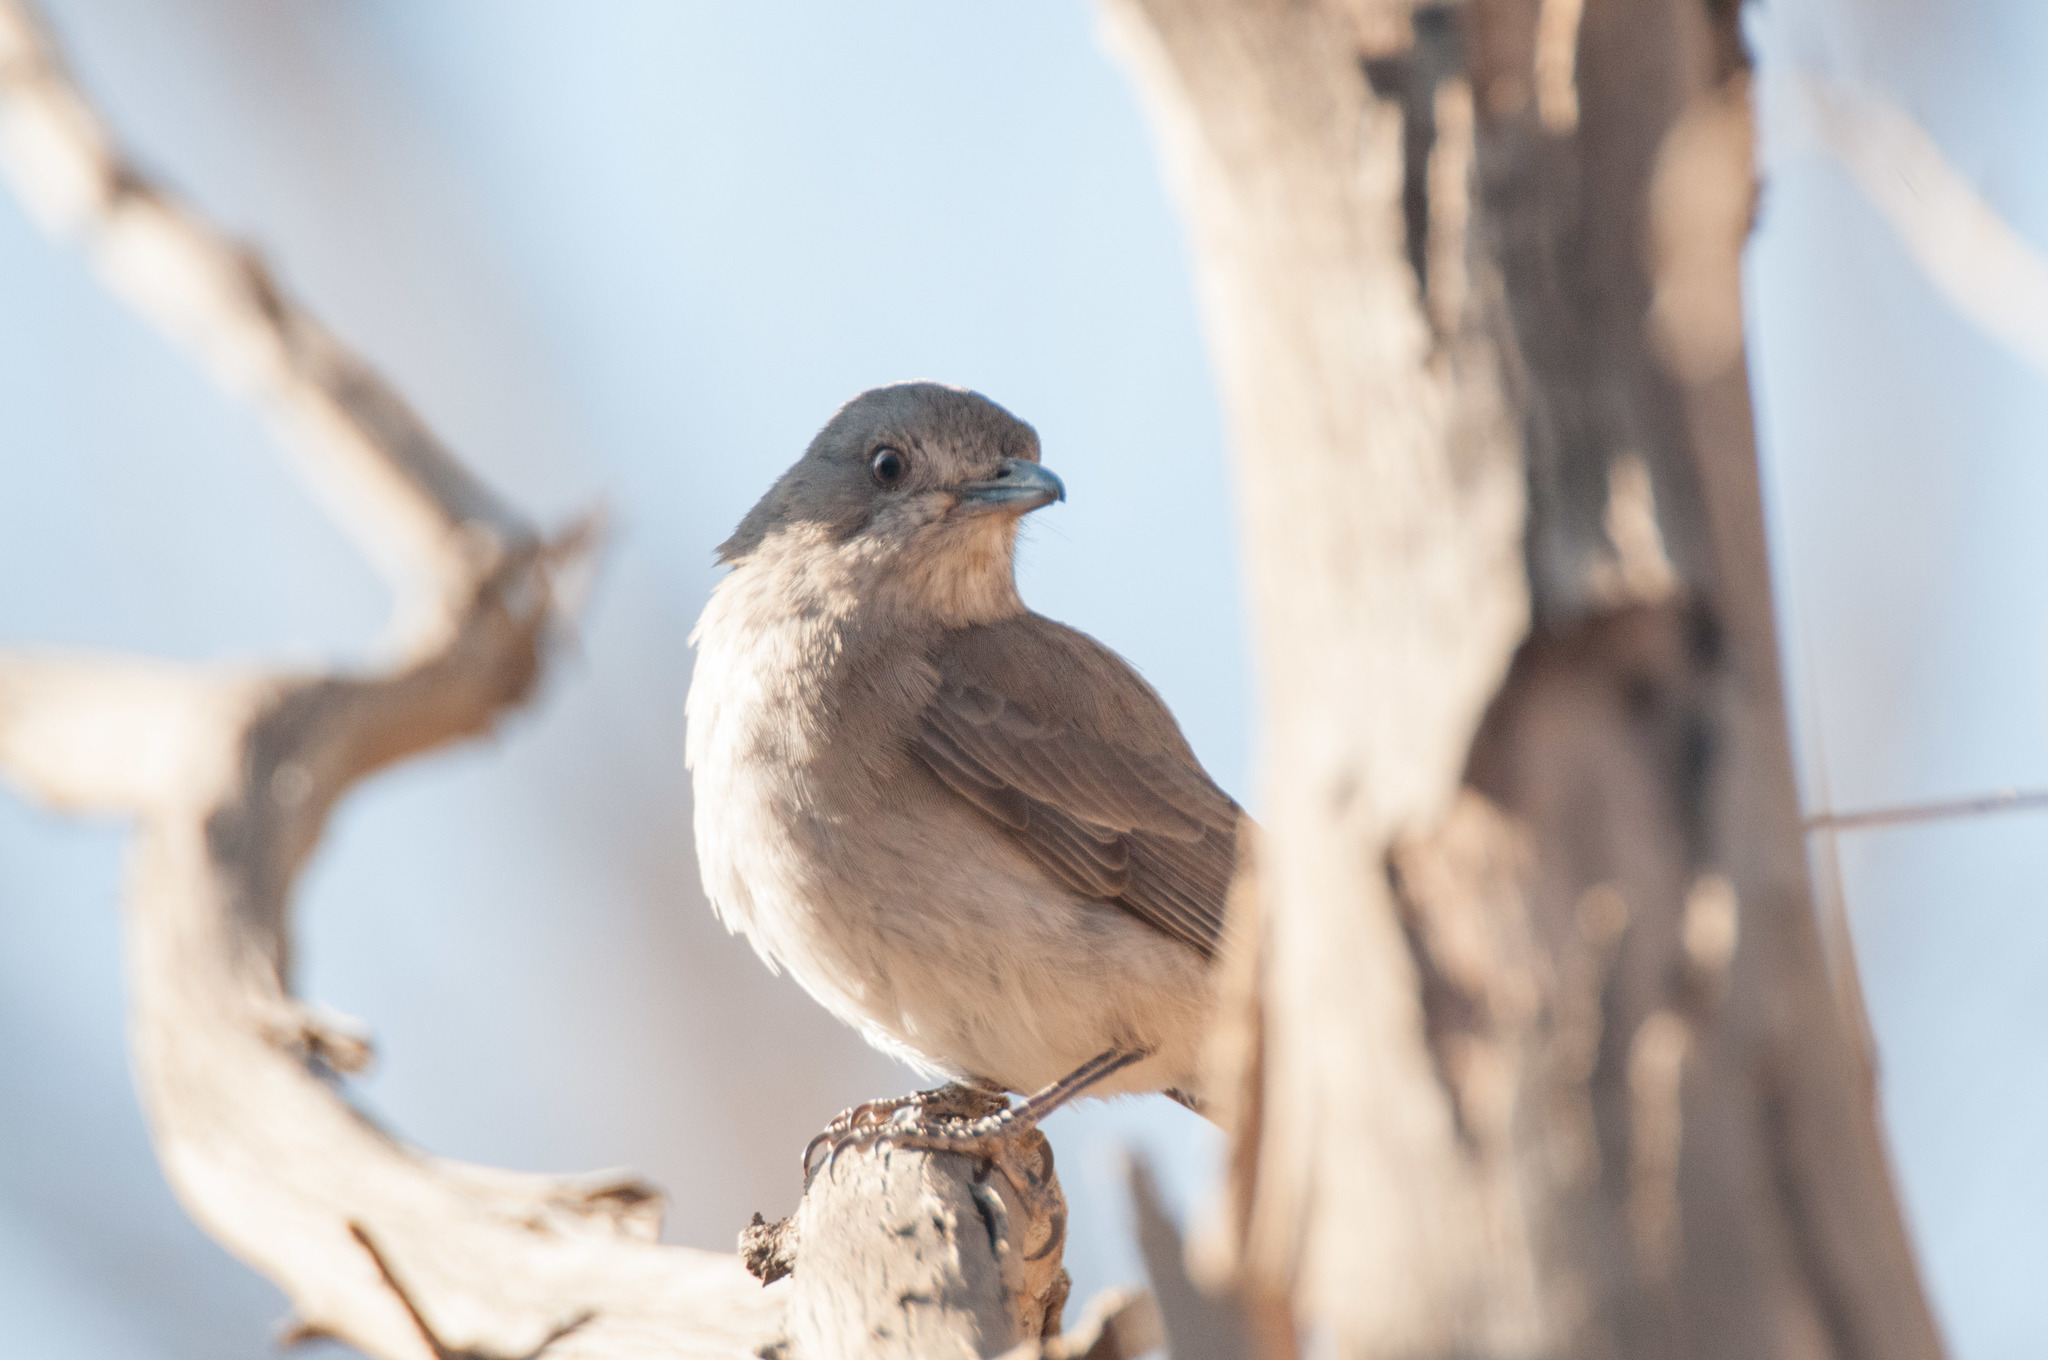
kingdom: Animalia
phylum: Chordata
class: Aves
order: Passeriformes
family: Pachycephalidae
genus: Colluricincla
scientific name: Colluricincla harmonica
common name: Grey shrikethrush
